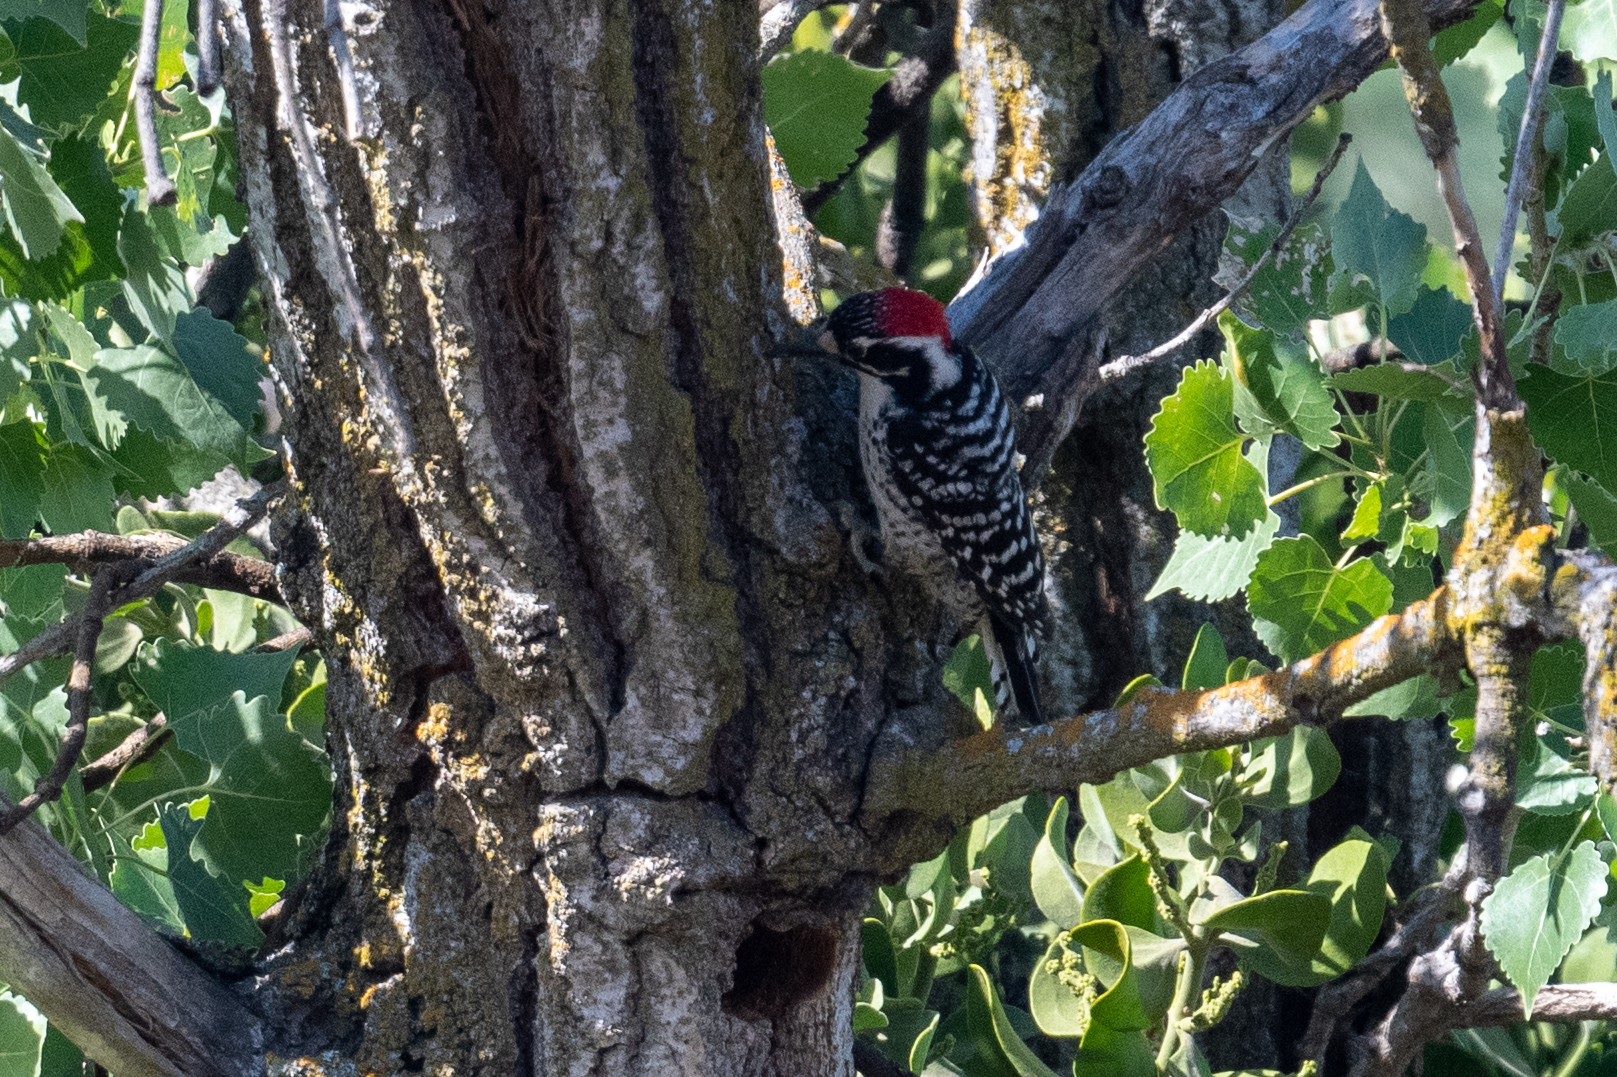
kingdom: Animalia
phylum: Chordata
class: Aves
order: Piciformes
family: Picidae
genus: Dryobates
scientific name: Dryobates nuttallii
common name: Nuttall's woodpecker
